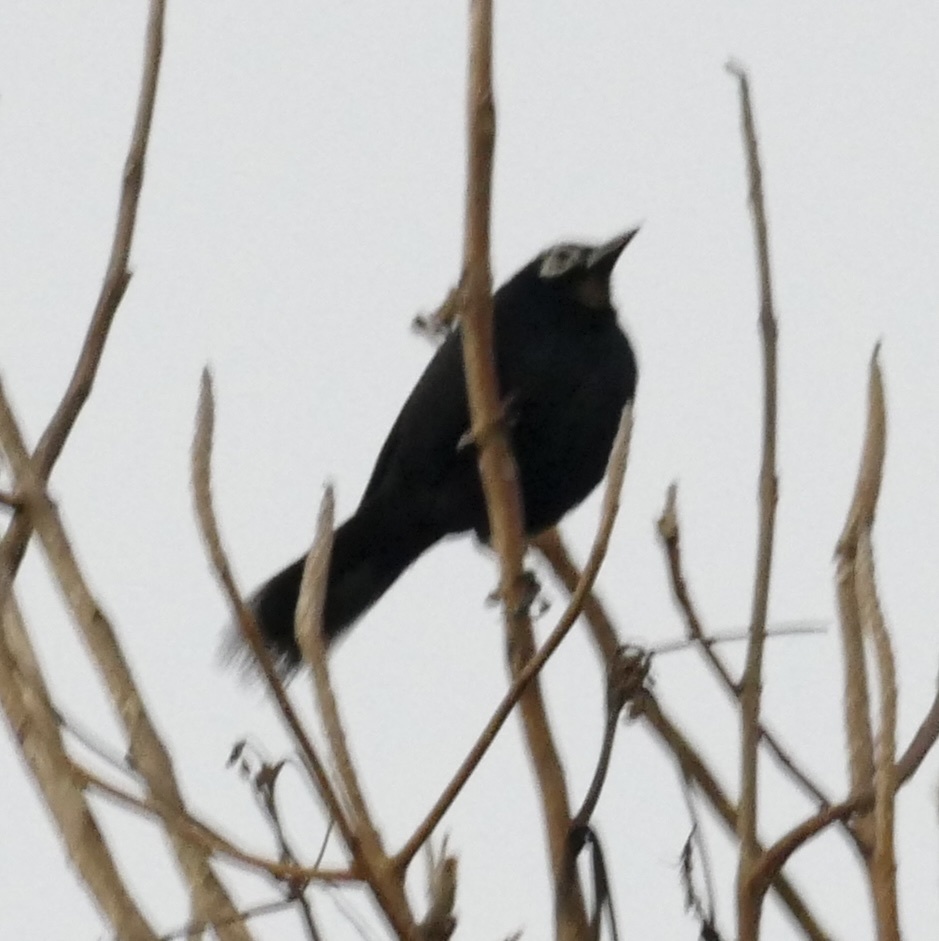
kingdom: Animalia
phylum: Chordata
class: Aves
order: Passeriformes
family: Icteridae
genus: Dives
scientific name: Dives dives
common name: Melodious blackbird
